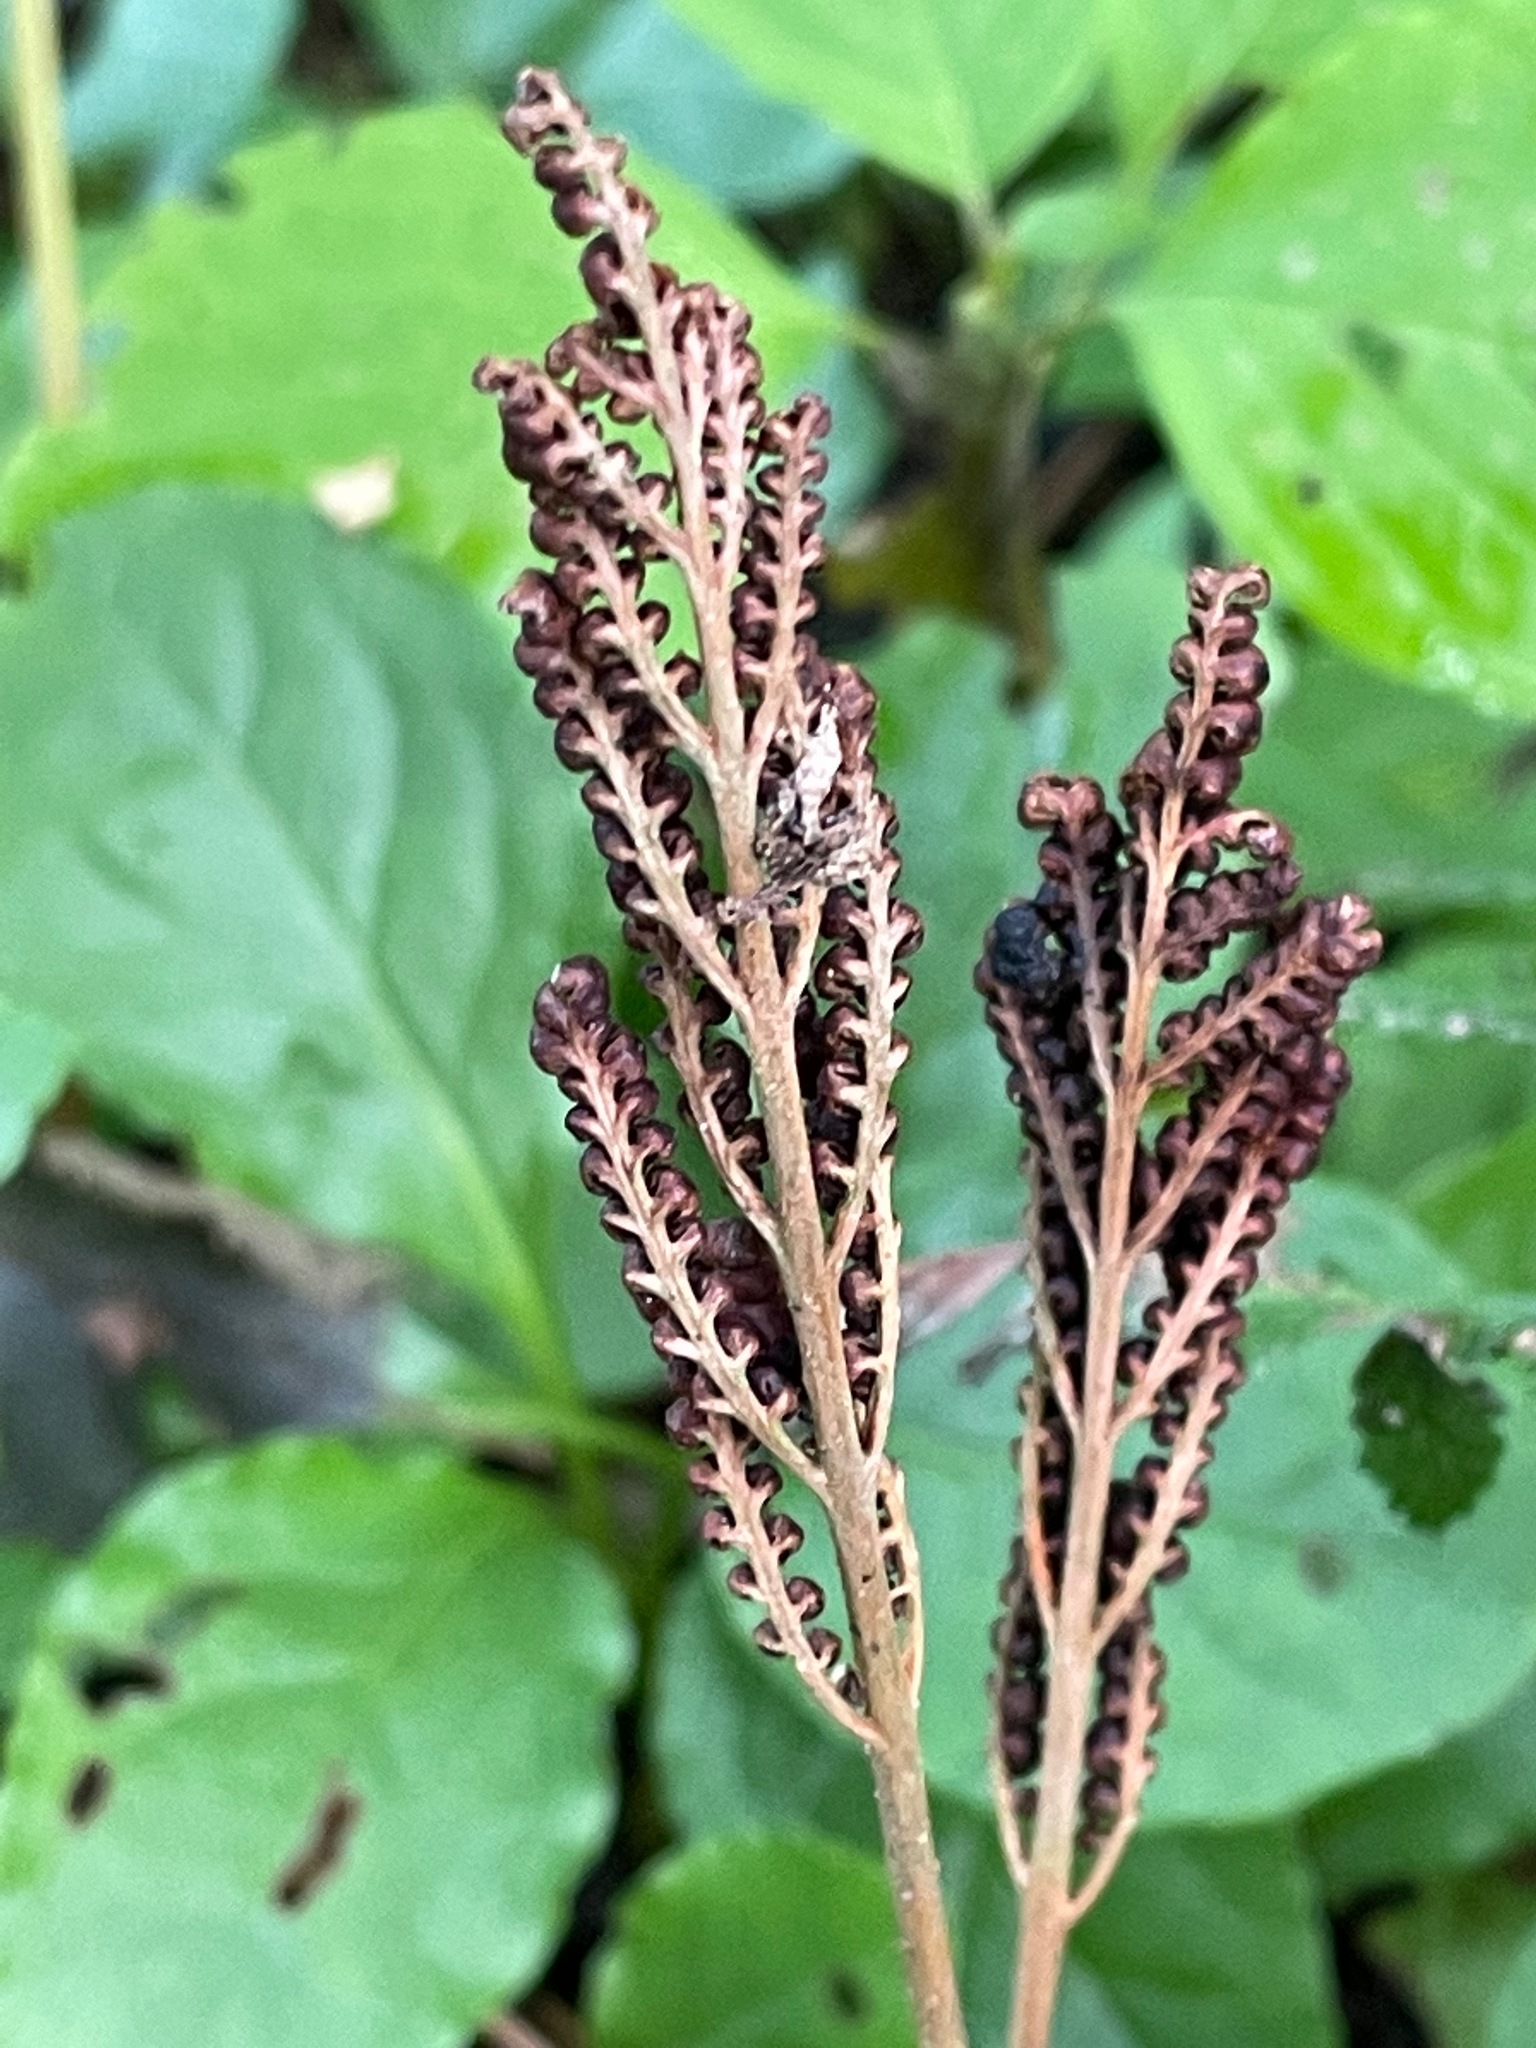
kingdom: Plantae
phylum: Tracheophyta
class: Polypodiopsida
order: Polypodiales
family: Onocleaceae
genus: Onoclea
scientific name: Onoclea sensibilis
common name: Sensitive fern
